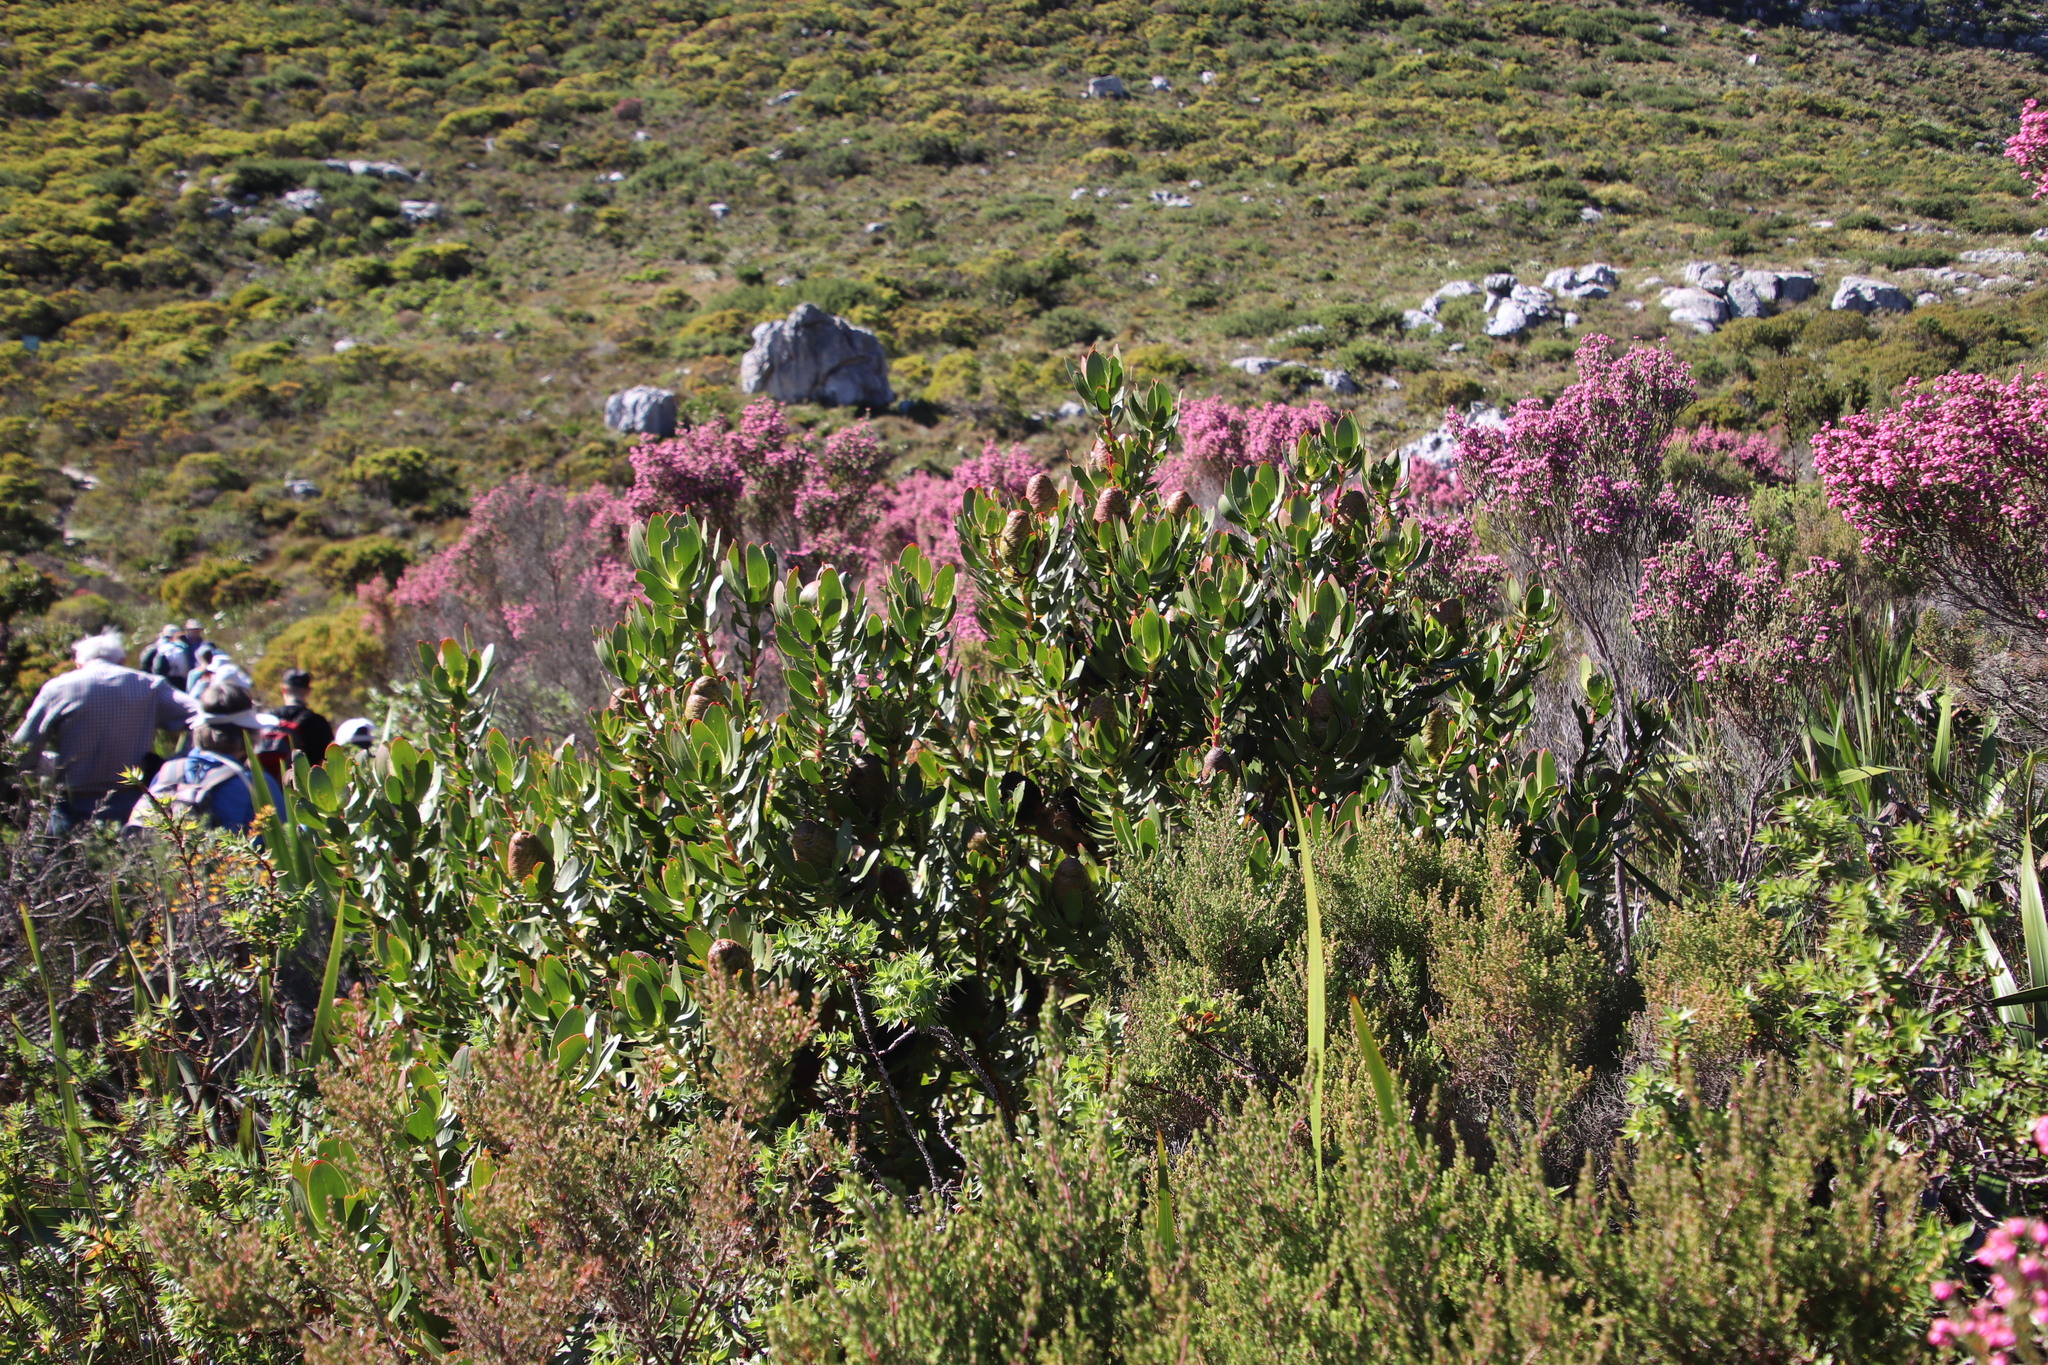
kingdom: Plantae
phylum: Tracheophyta
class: Magnoliopsida
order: Proteales
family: Proteaceae
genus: Leucadendron
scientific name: Leucadendron strobilinum
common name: Mountain rose
